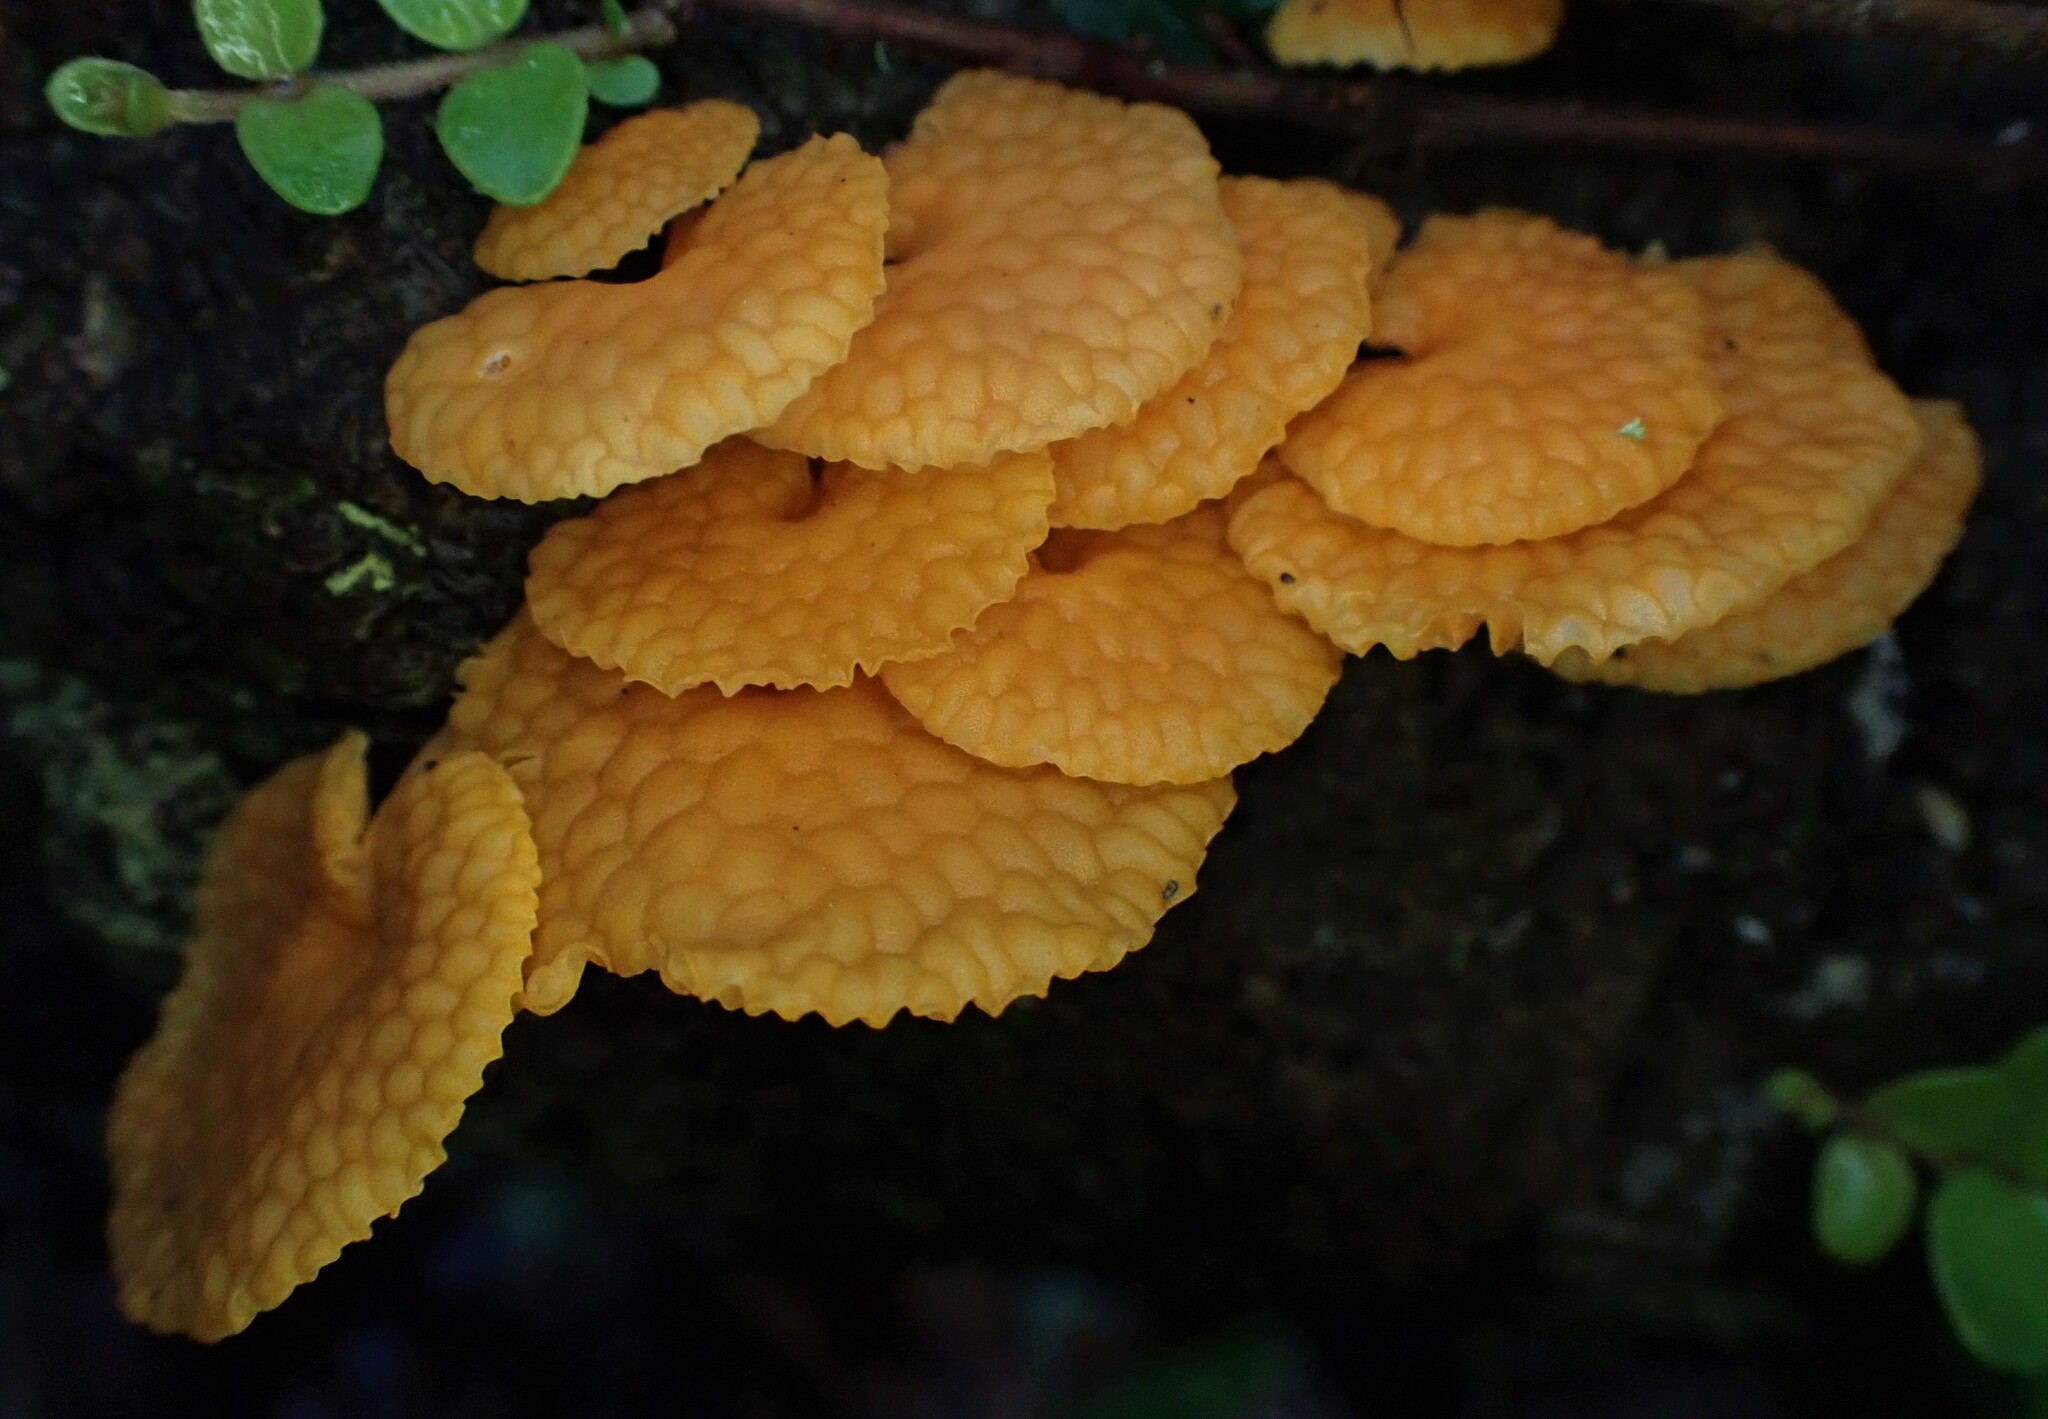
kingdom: Fungi
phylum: Basidiomycota
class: Agaricomycetes
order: Agaricales
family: Mycenaceae
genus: Favolaschia
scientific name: Favolaschia claudopus
